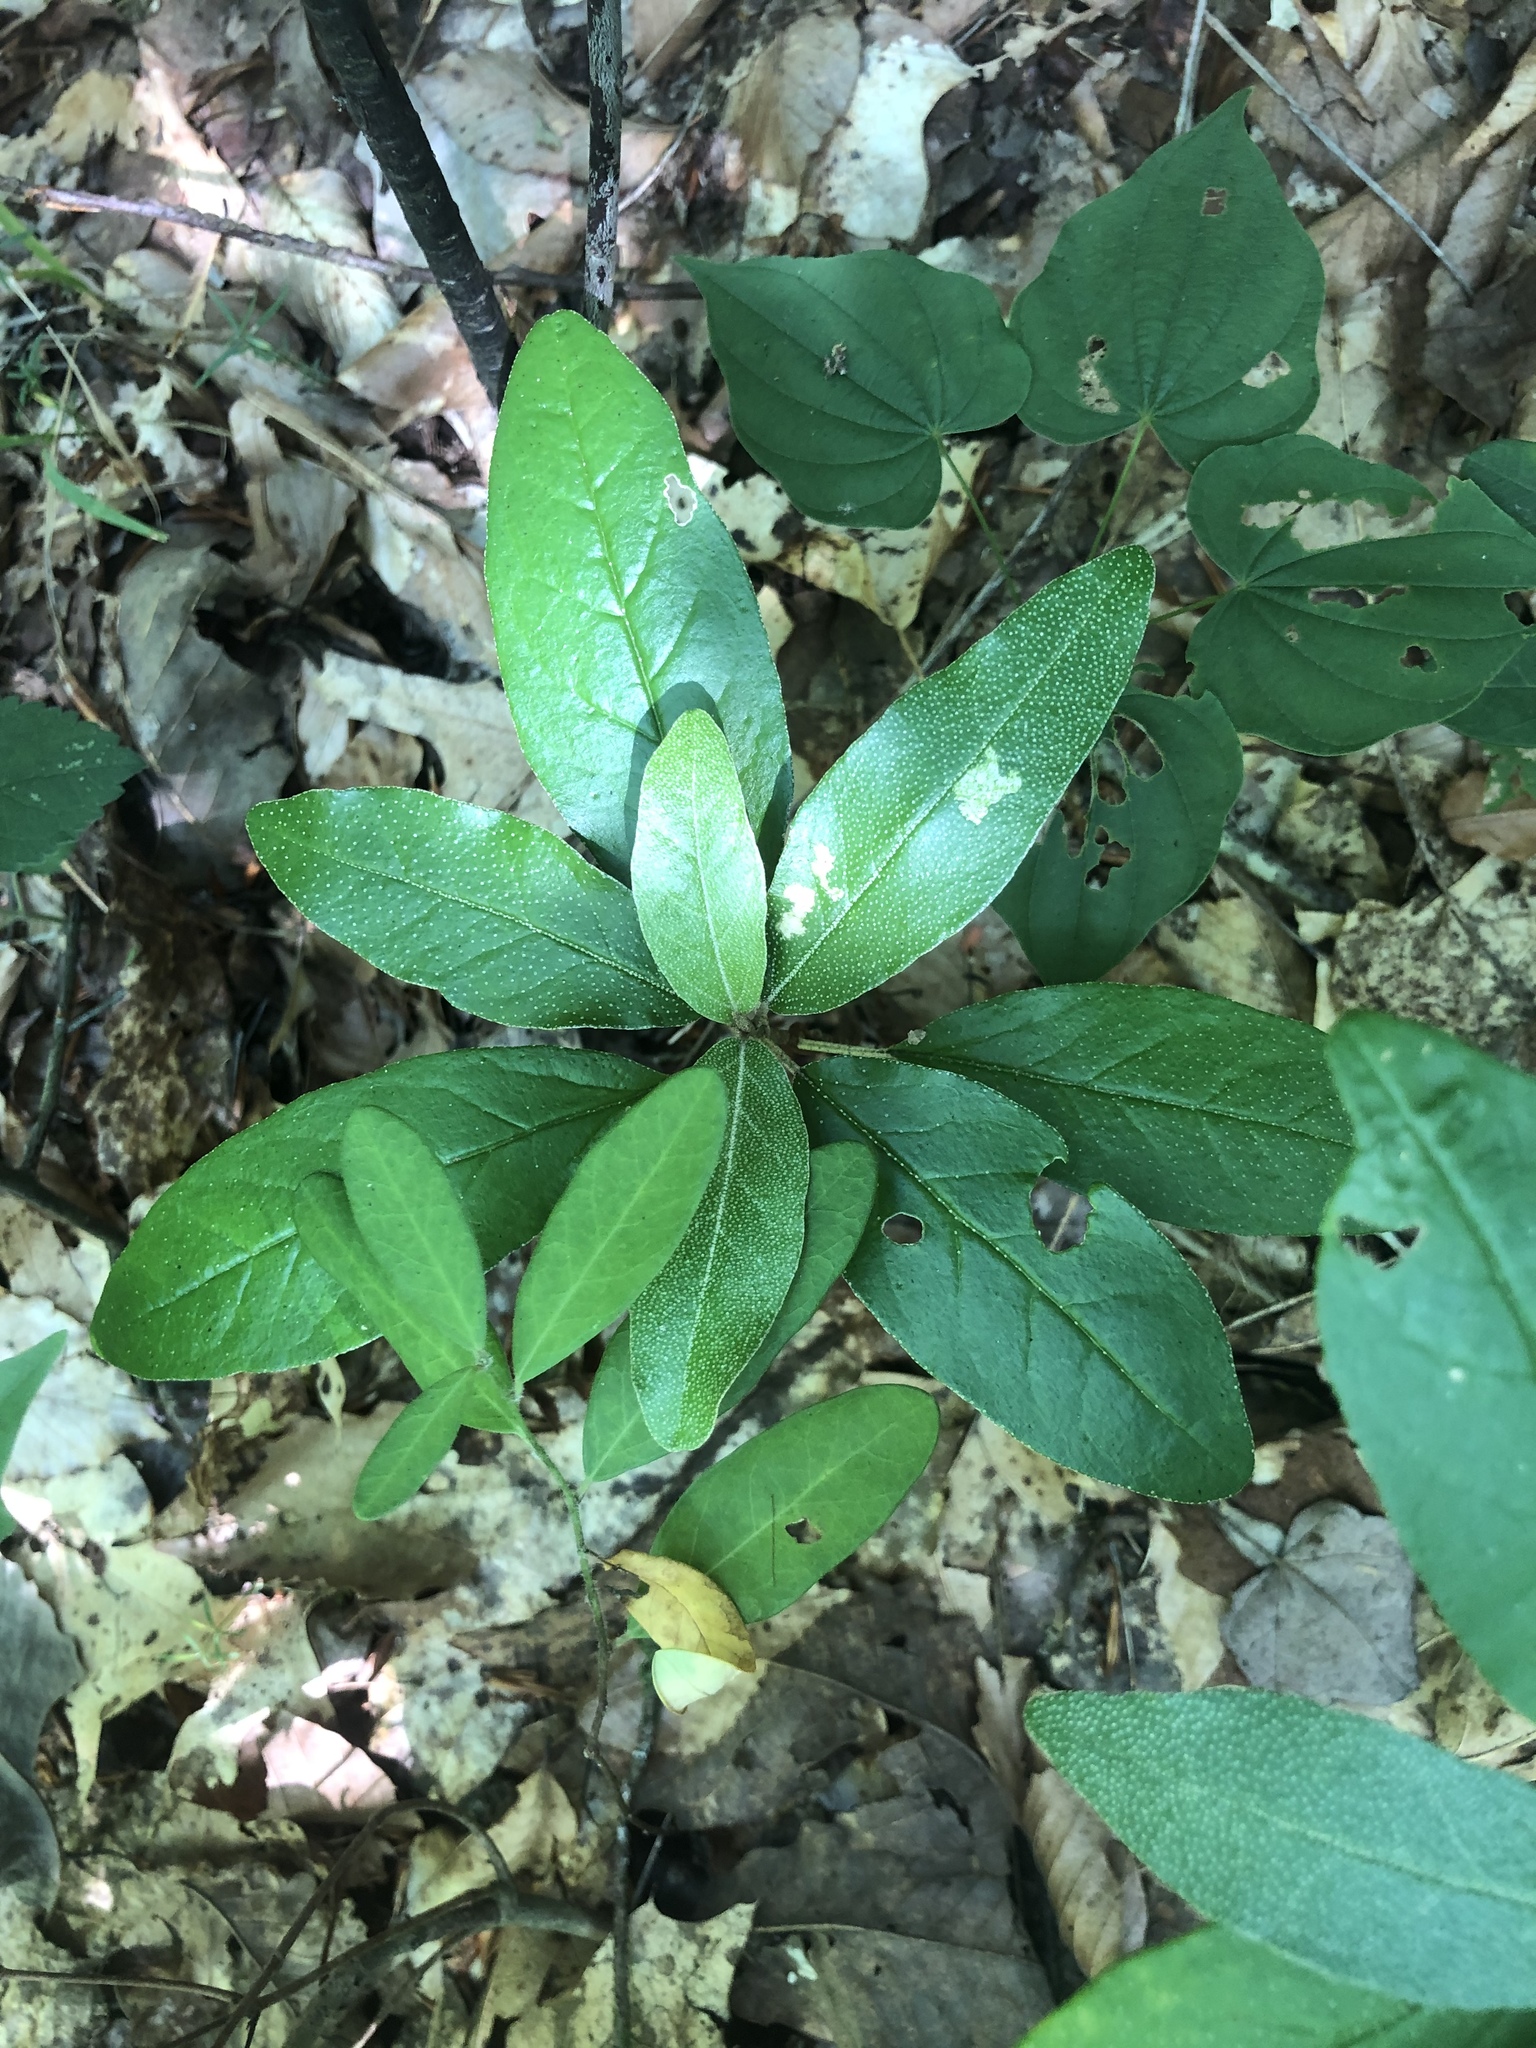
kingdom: Plantae
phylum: Tracheophyta
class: Magnoliopsida
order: Malpighiales
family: Euphorbiaceae
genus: Croton
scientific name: Croton alabamensis
